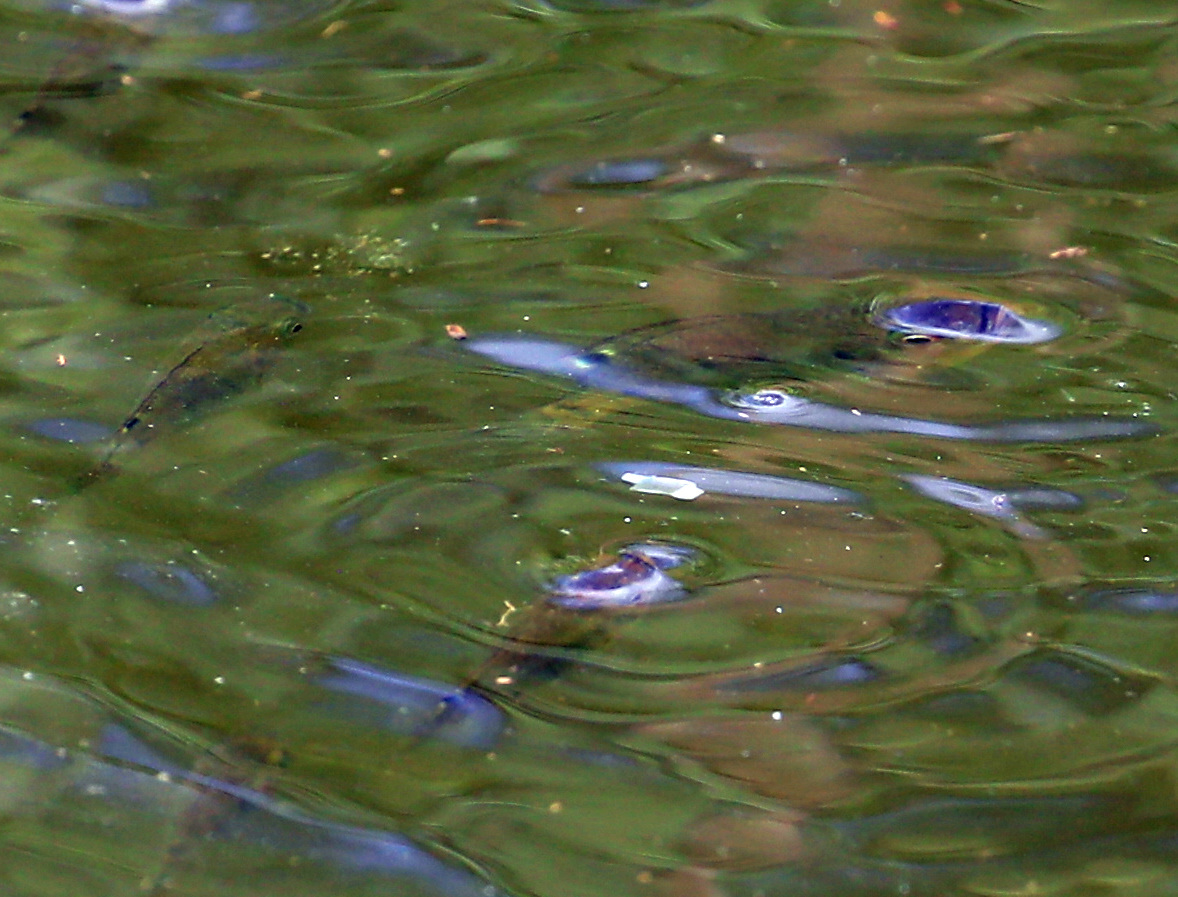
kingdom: Animalia
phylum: Chordata
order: Perciformes
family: Cichlidae
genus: Oreochromis
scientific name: Oreochromis mossambicus
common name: Mozambique tilapia
